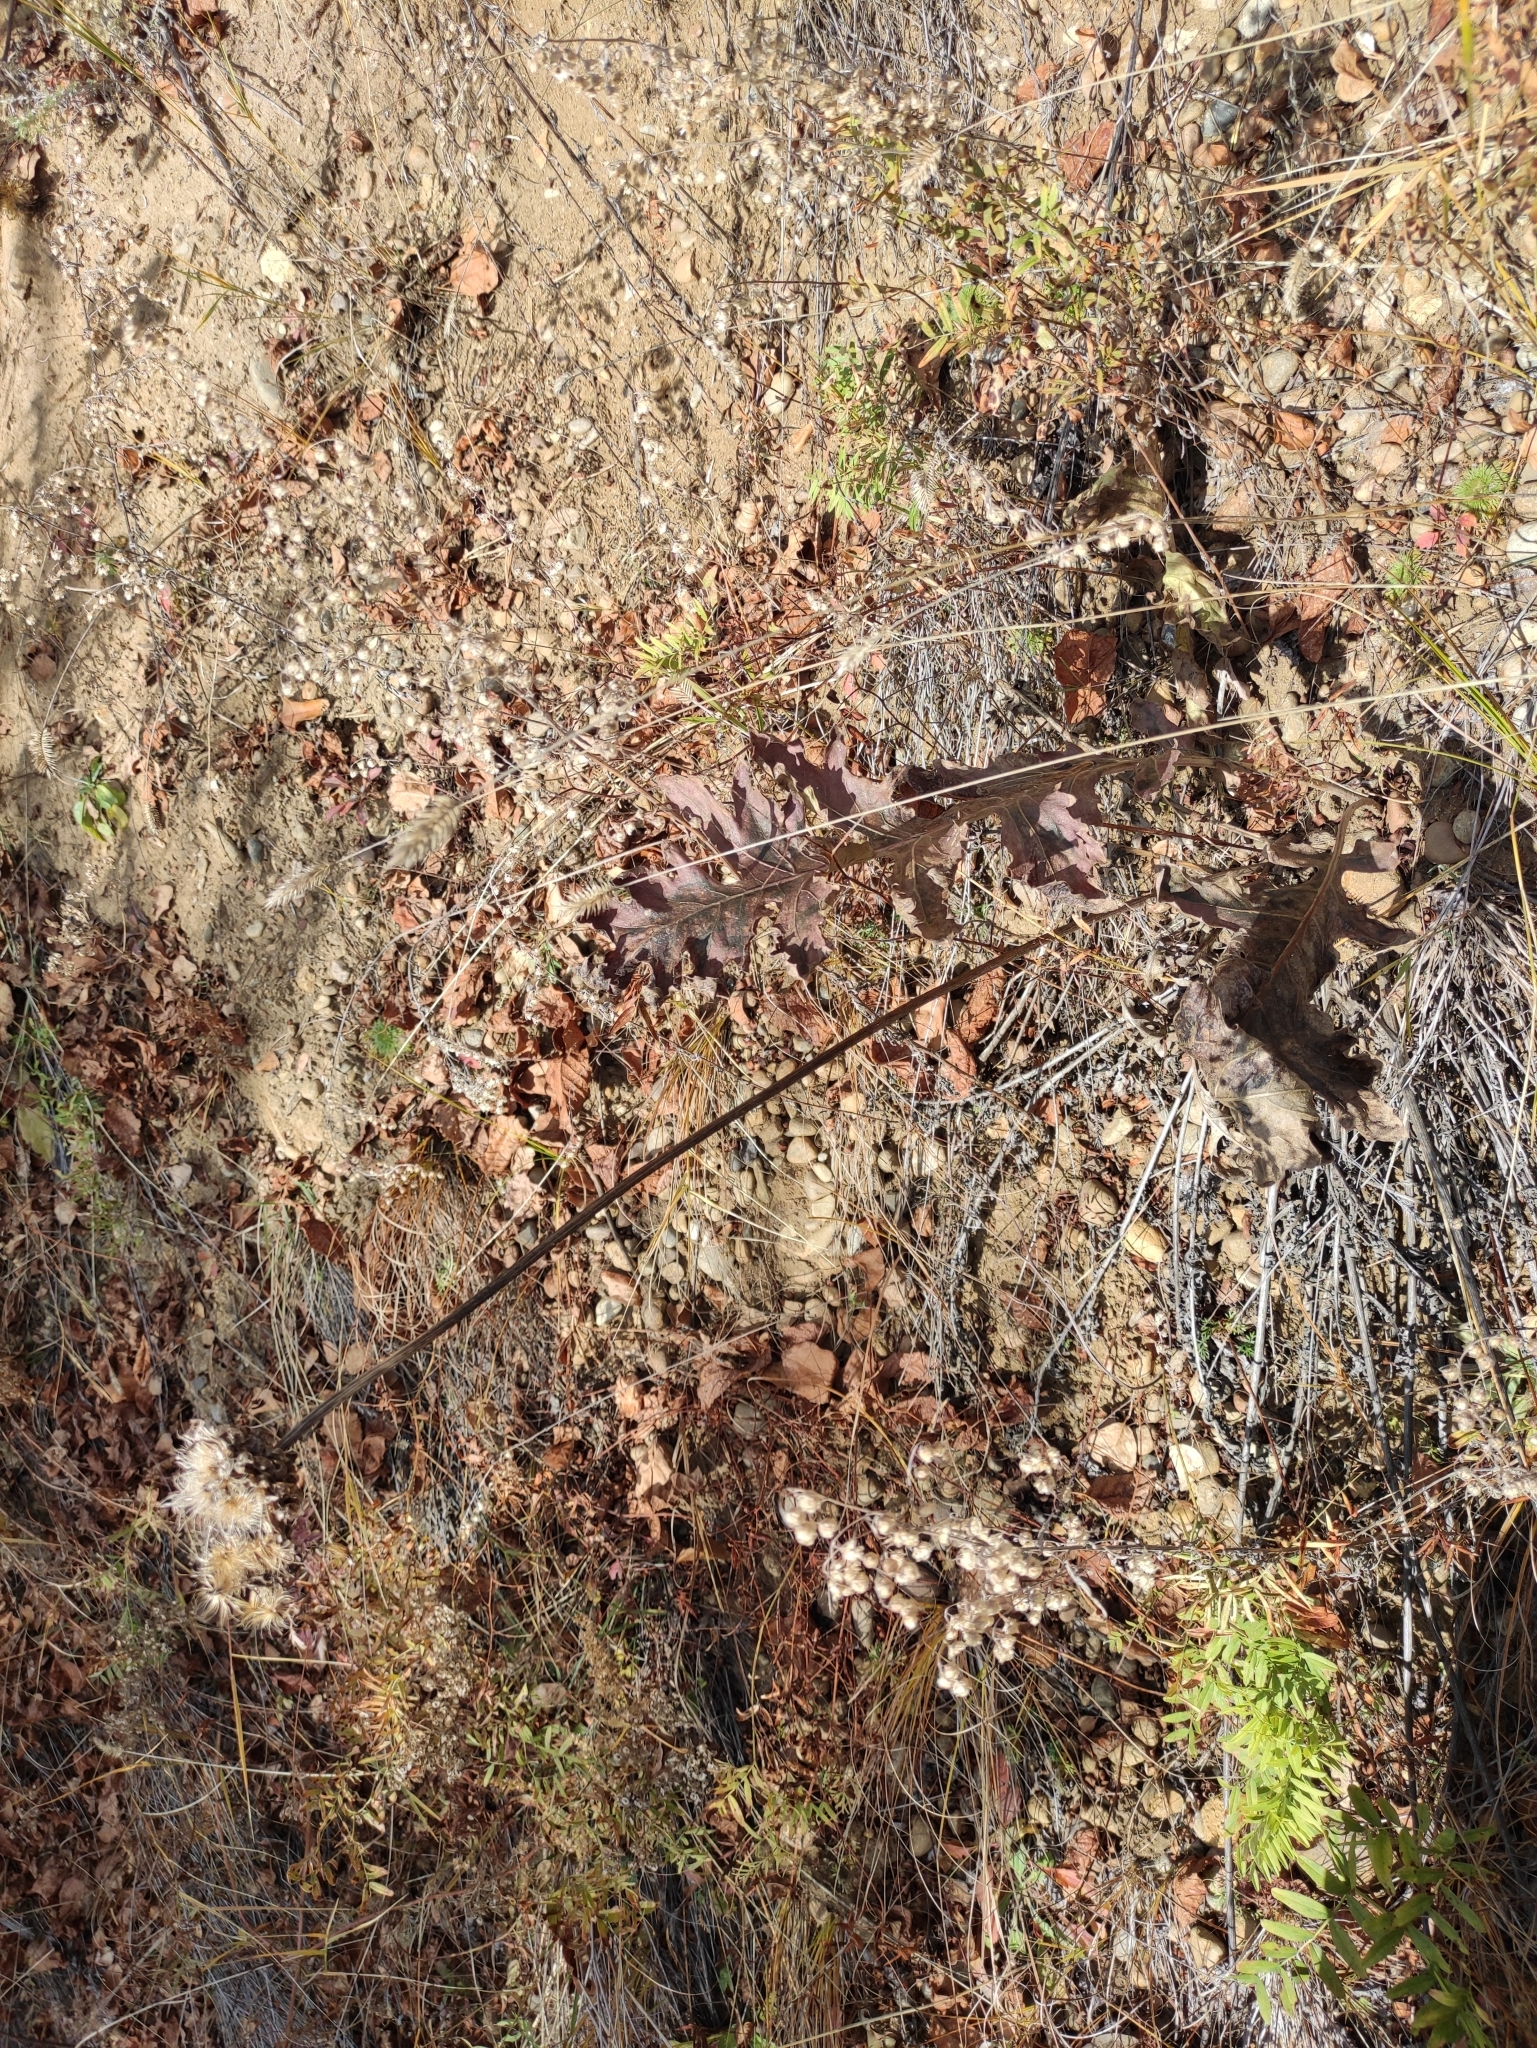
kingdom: Plantae
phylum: Tracheophyta
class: Magnoliopsida
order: Asterales
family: Asteraceae
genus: Leuzea
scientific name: Leuzea uniflora
